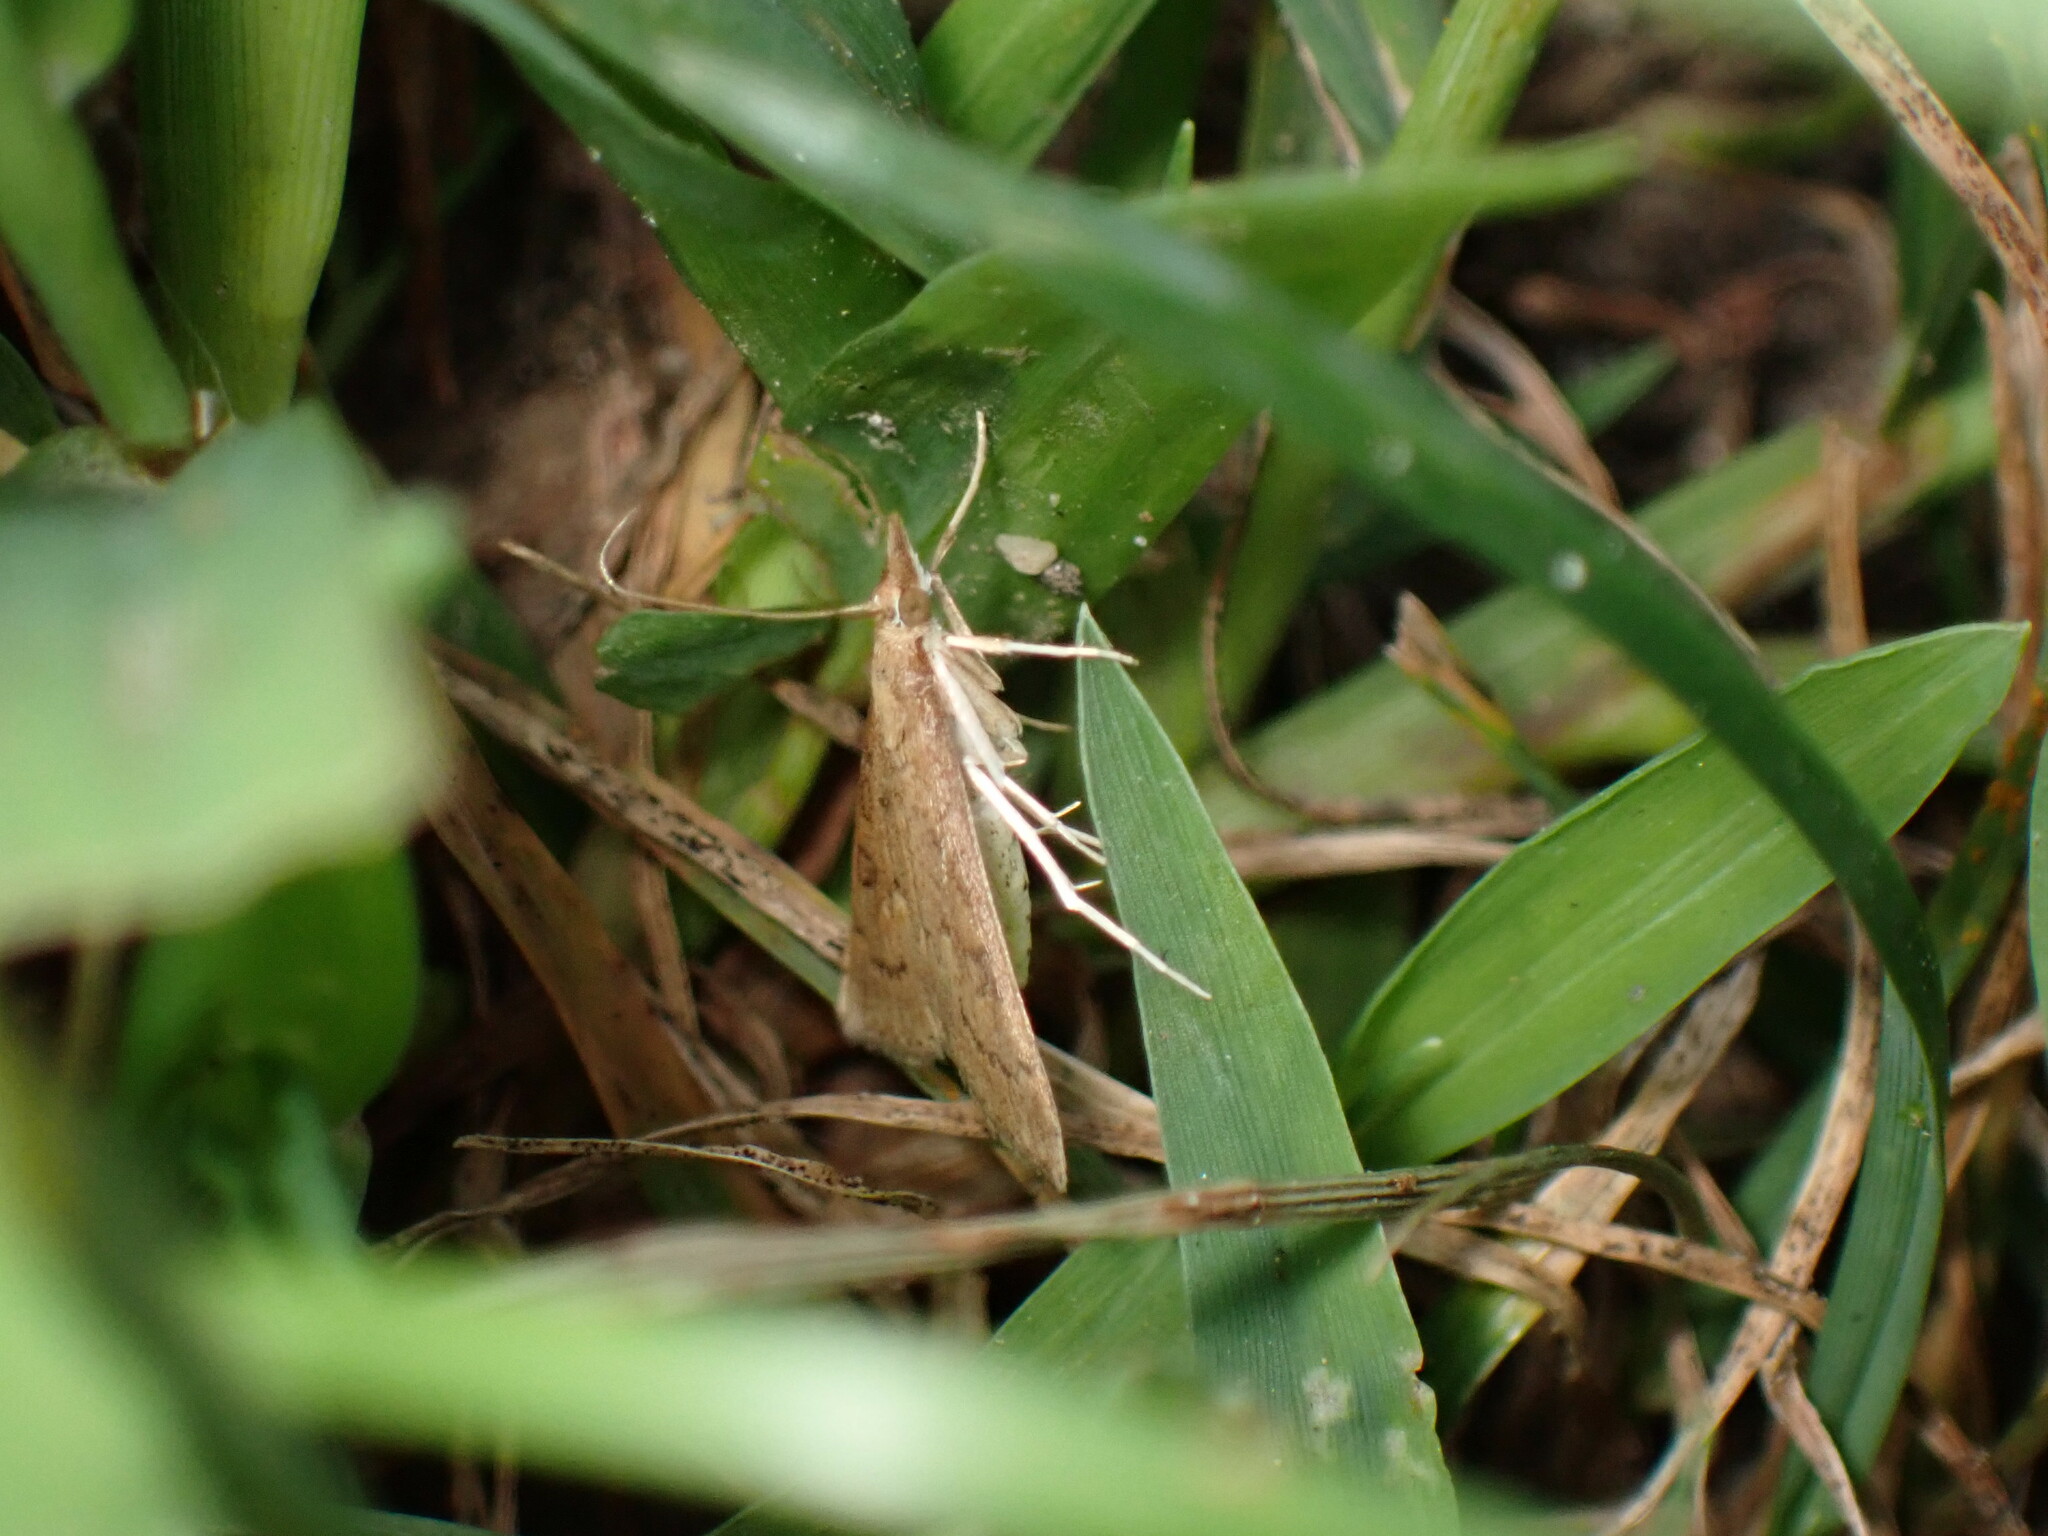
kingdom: Animalia
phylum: Arthropoda
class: Insecta
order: Lepidoptera
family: Crambidae
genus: Udea
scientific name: Udea rubigalis
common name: Celery leaftier moth
